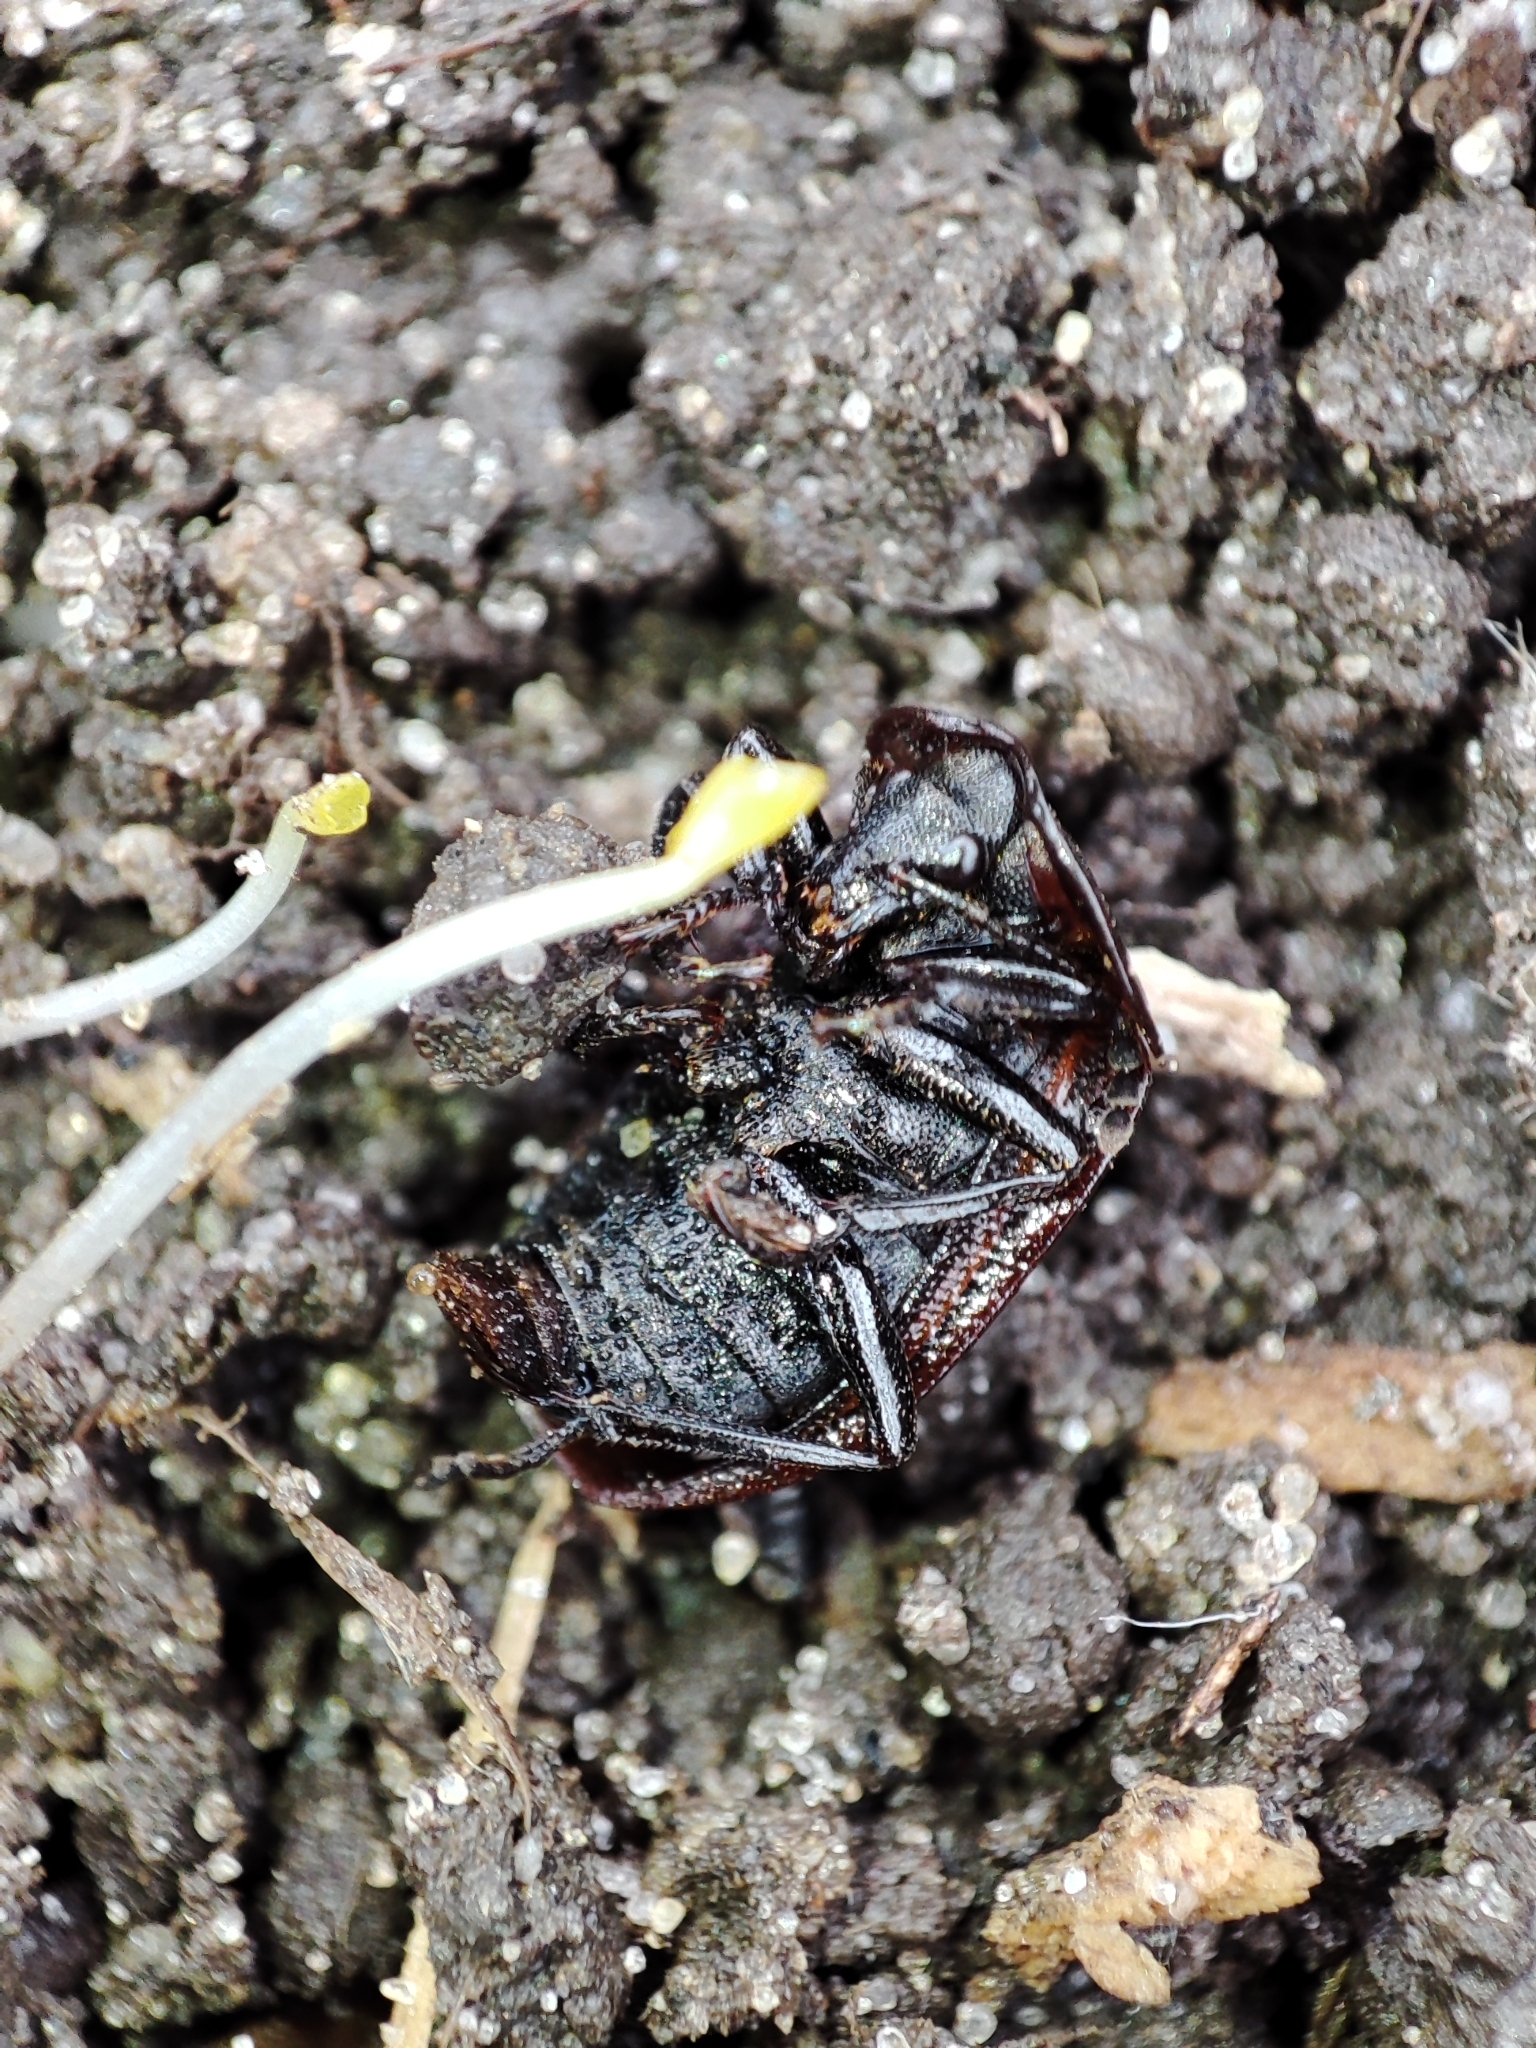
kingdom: Animalia
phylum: Arthropoda
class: Insecta
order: Coleoptera
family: Staphylinidae
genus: Silpha
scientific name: Silpha atrata
